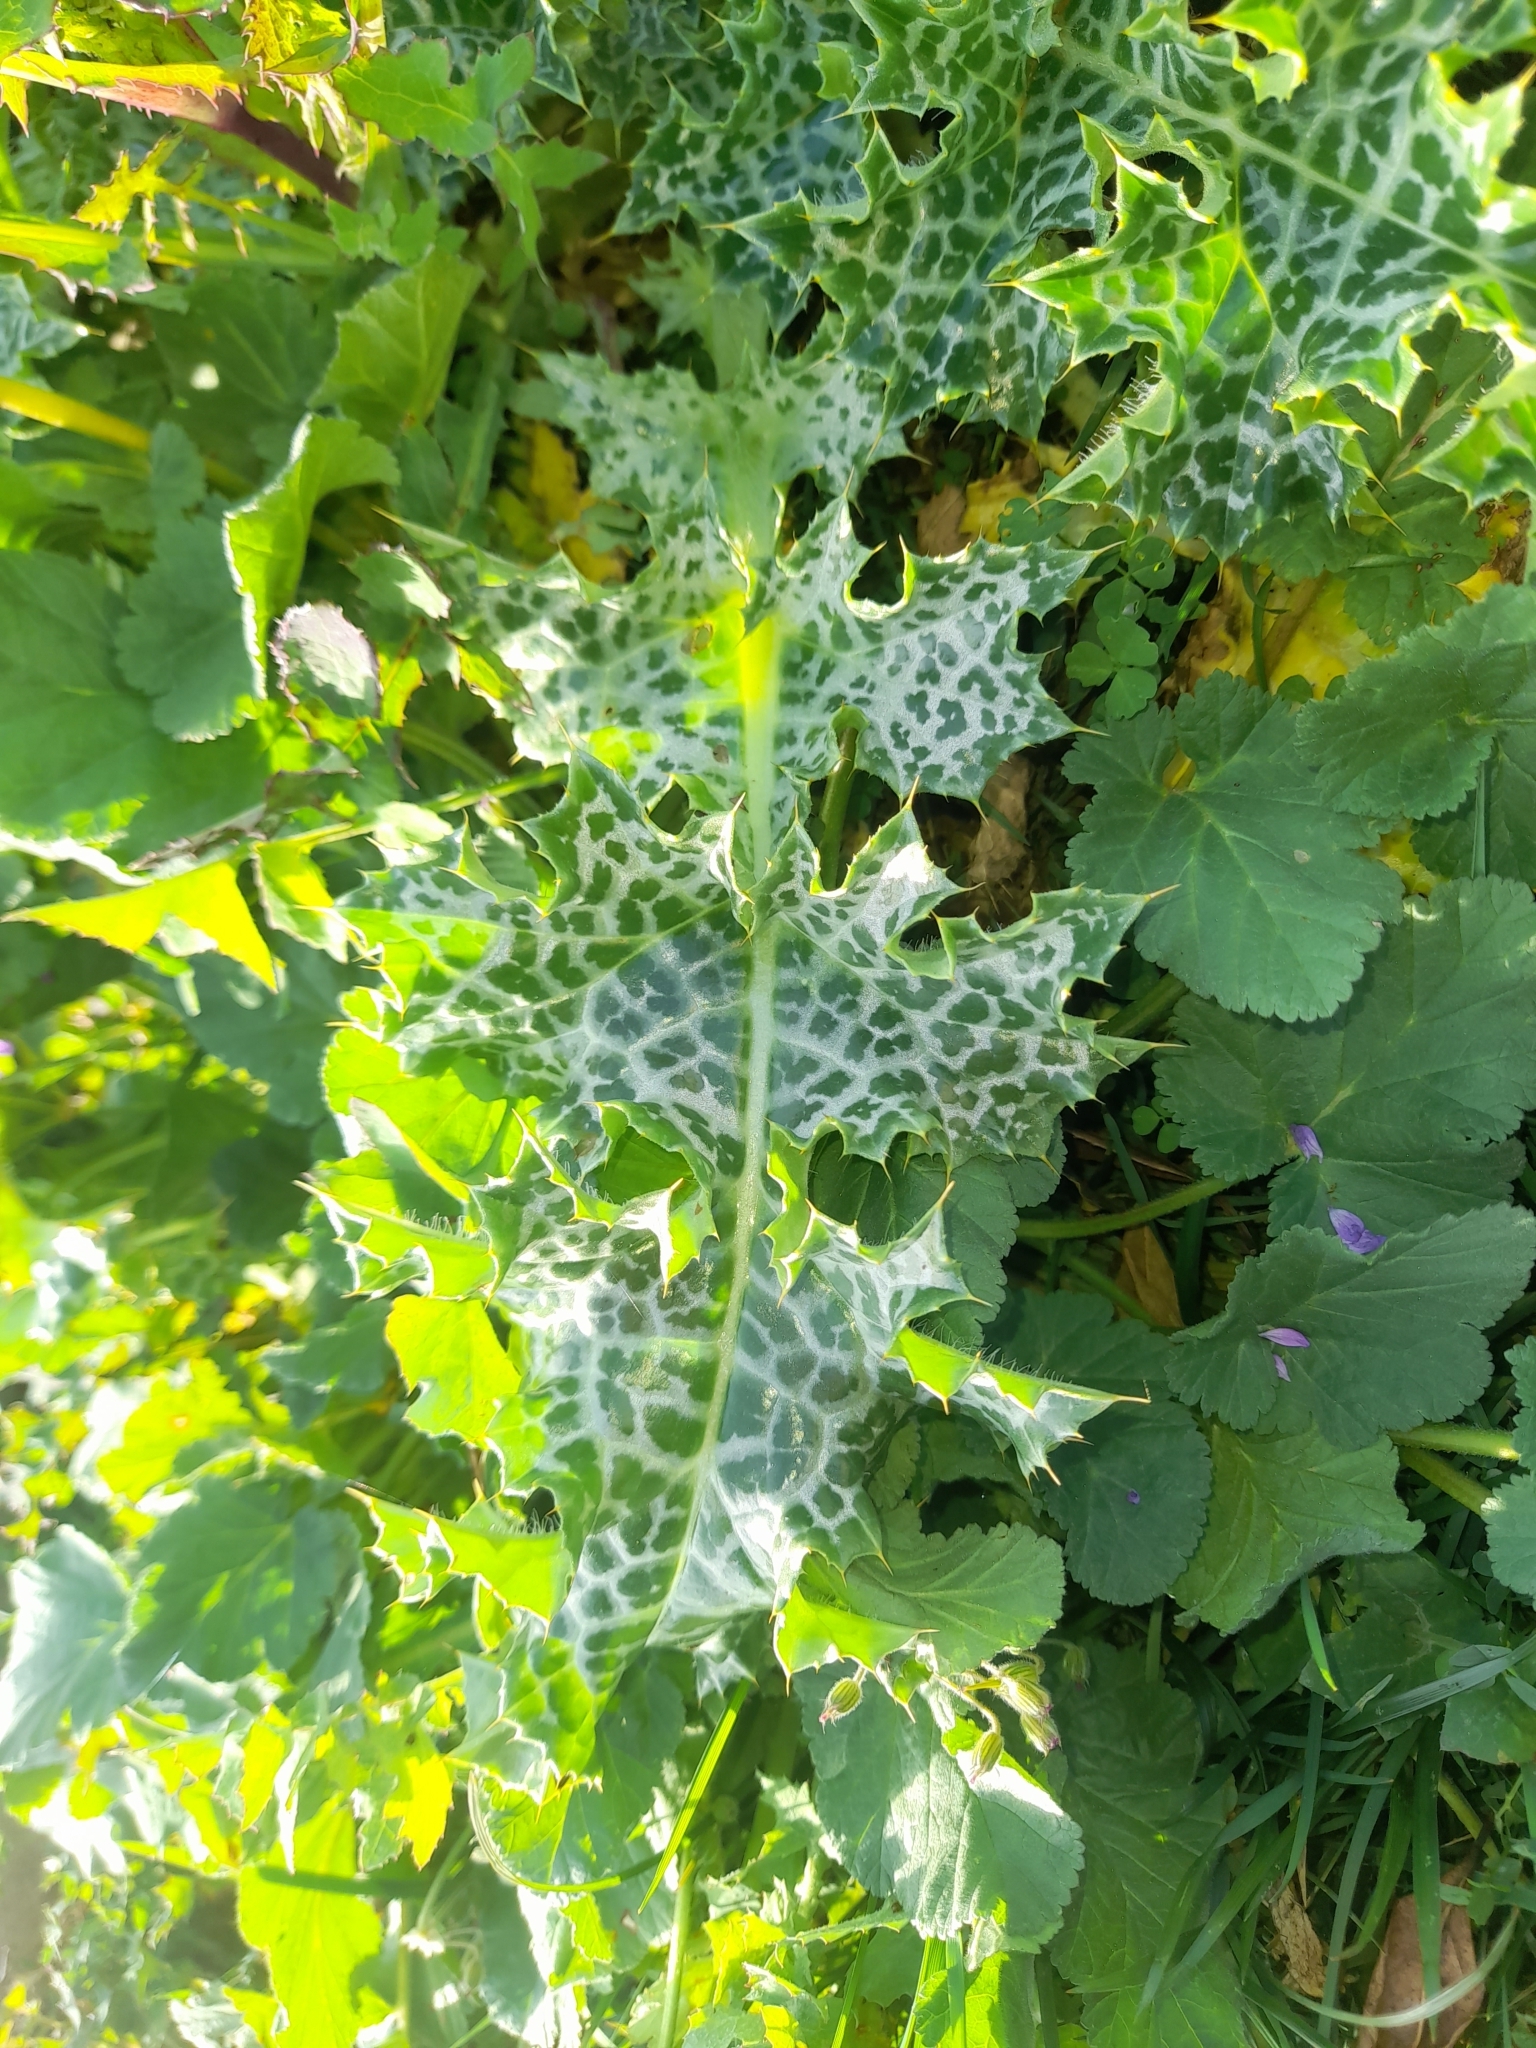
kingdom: Plantae
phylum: Tracheophyta
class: Magnoliopsida
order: Asterales
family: Asteraceae
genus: Silybum
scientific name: Silybum marianum
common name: Milk thistle
